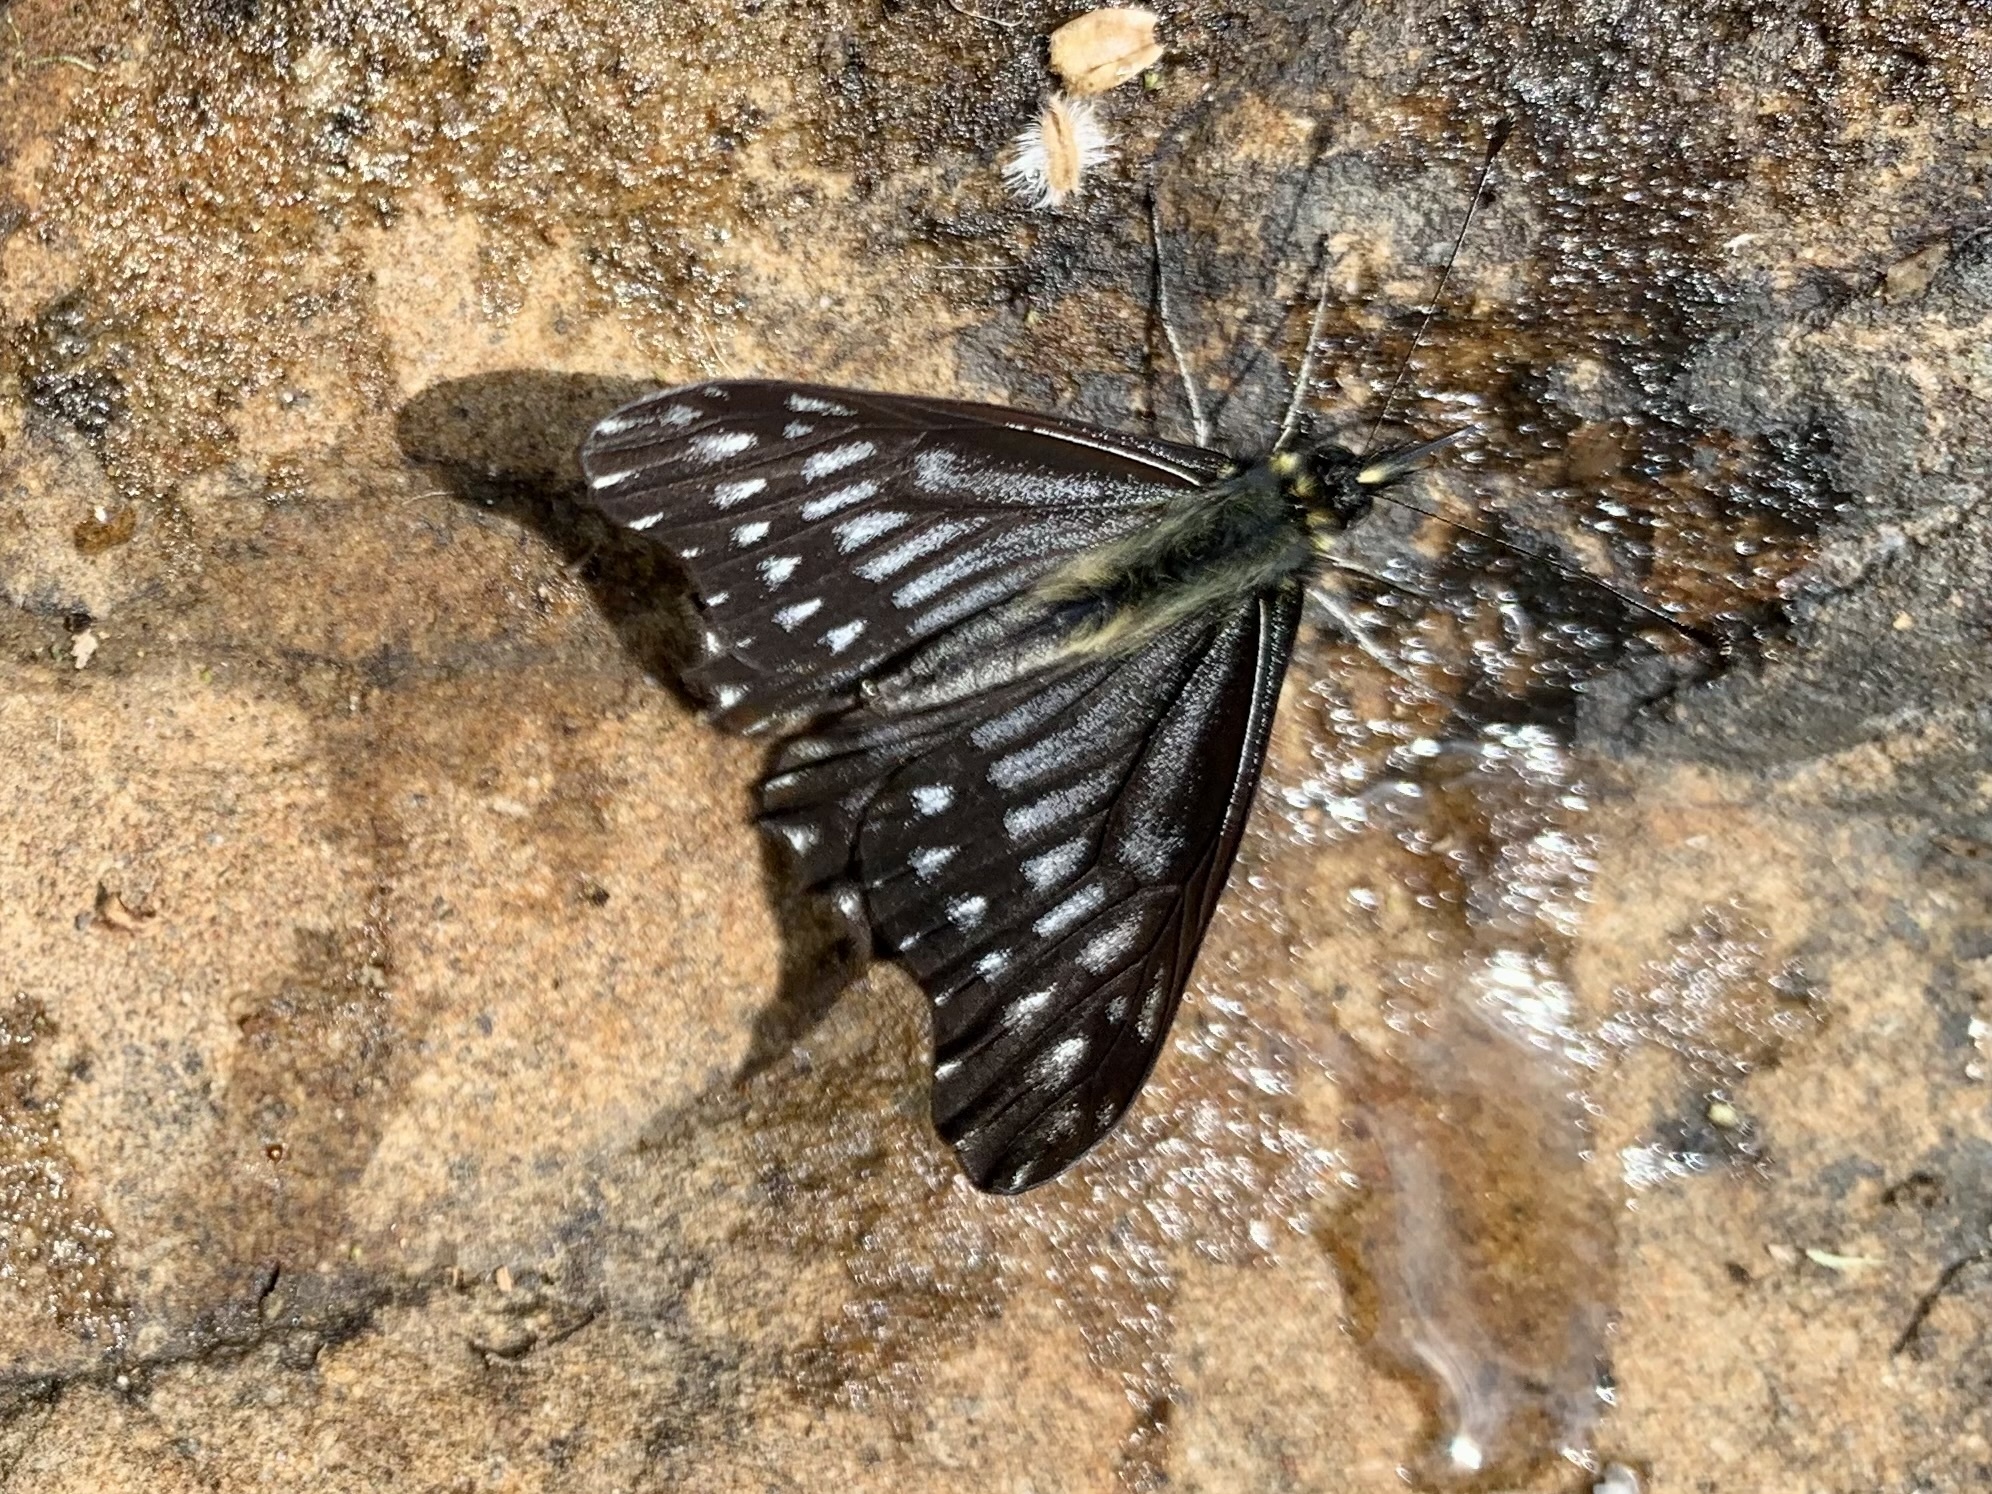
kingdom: Animalia
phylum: Arthropoda
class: Insecta
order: Lepidoptera
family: Pieridae
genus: Catasticta
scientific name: Catasticta ferra
